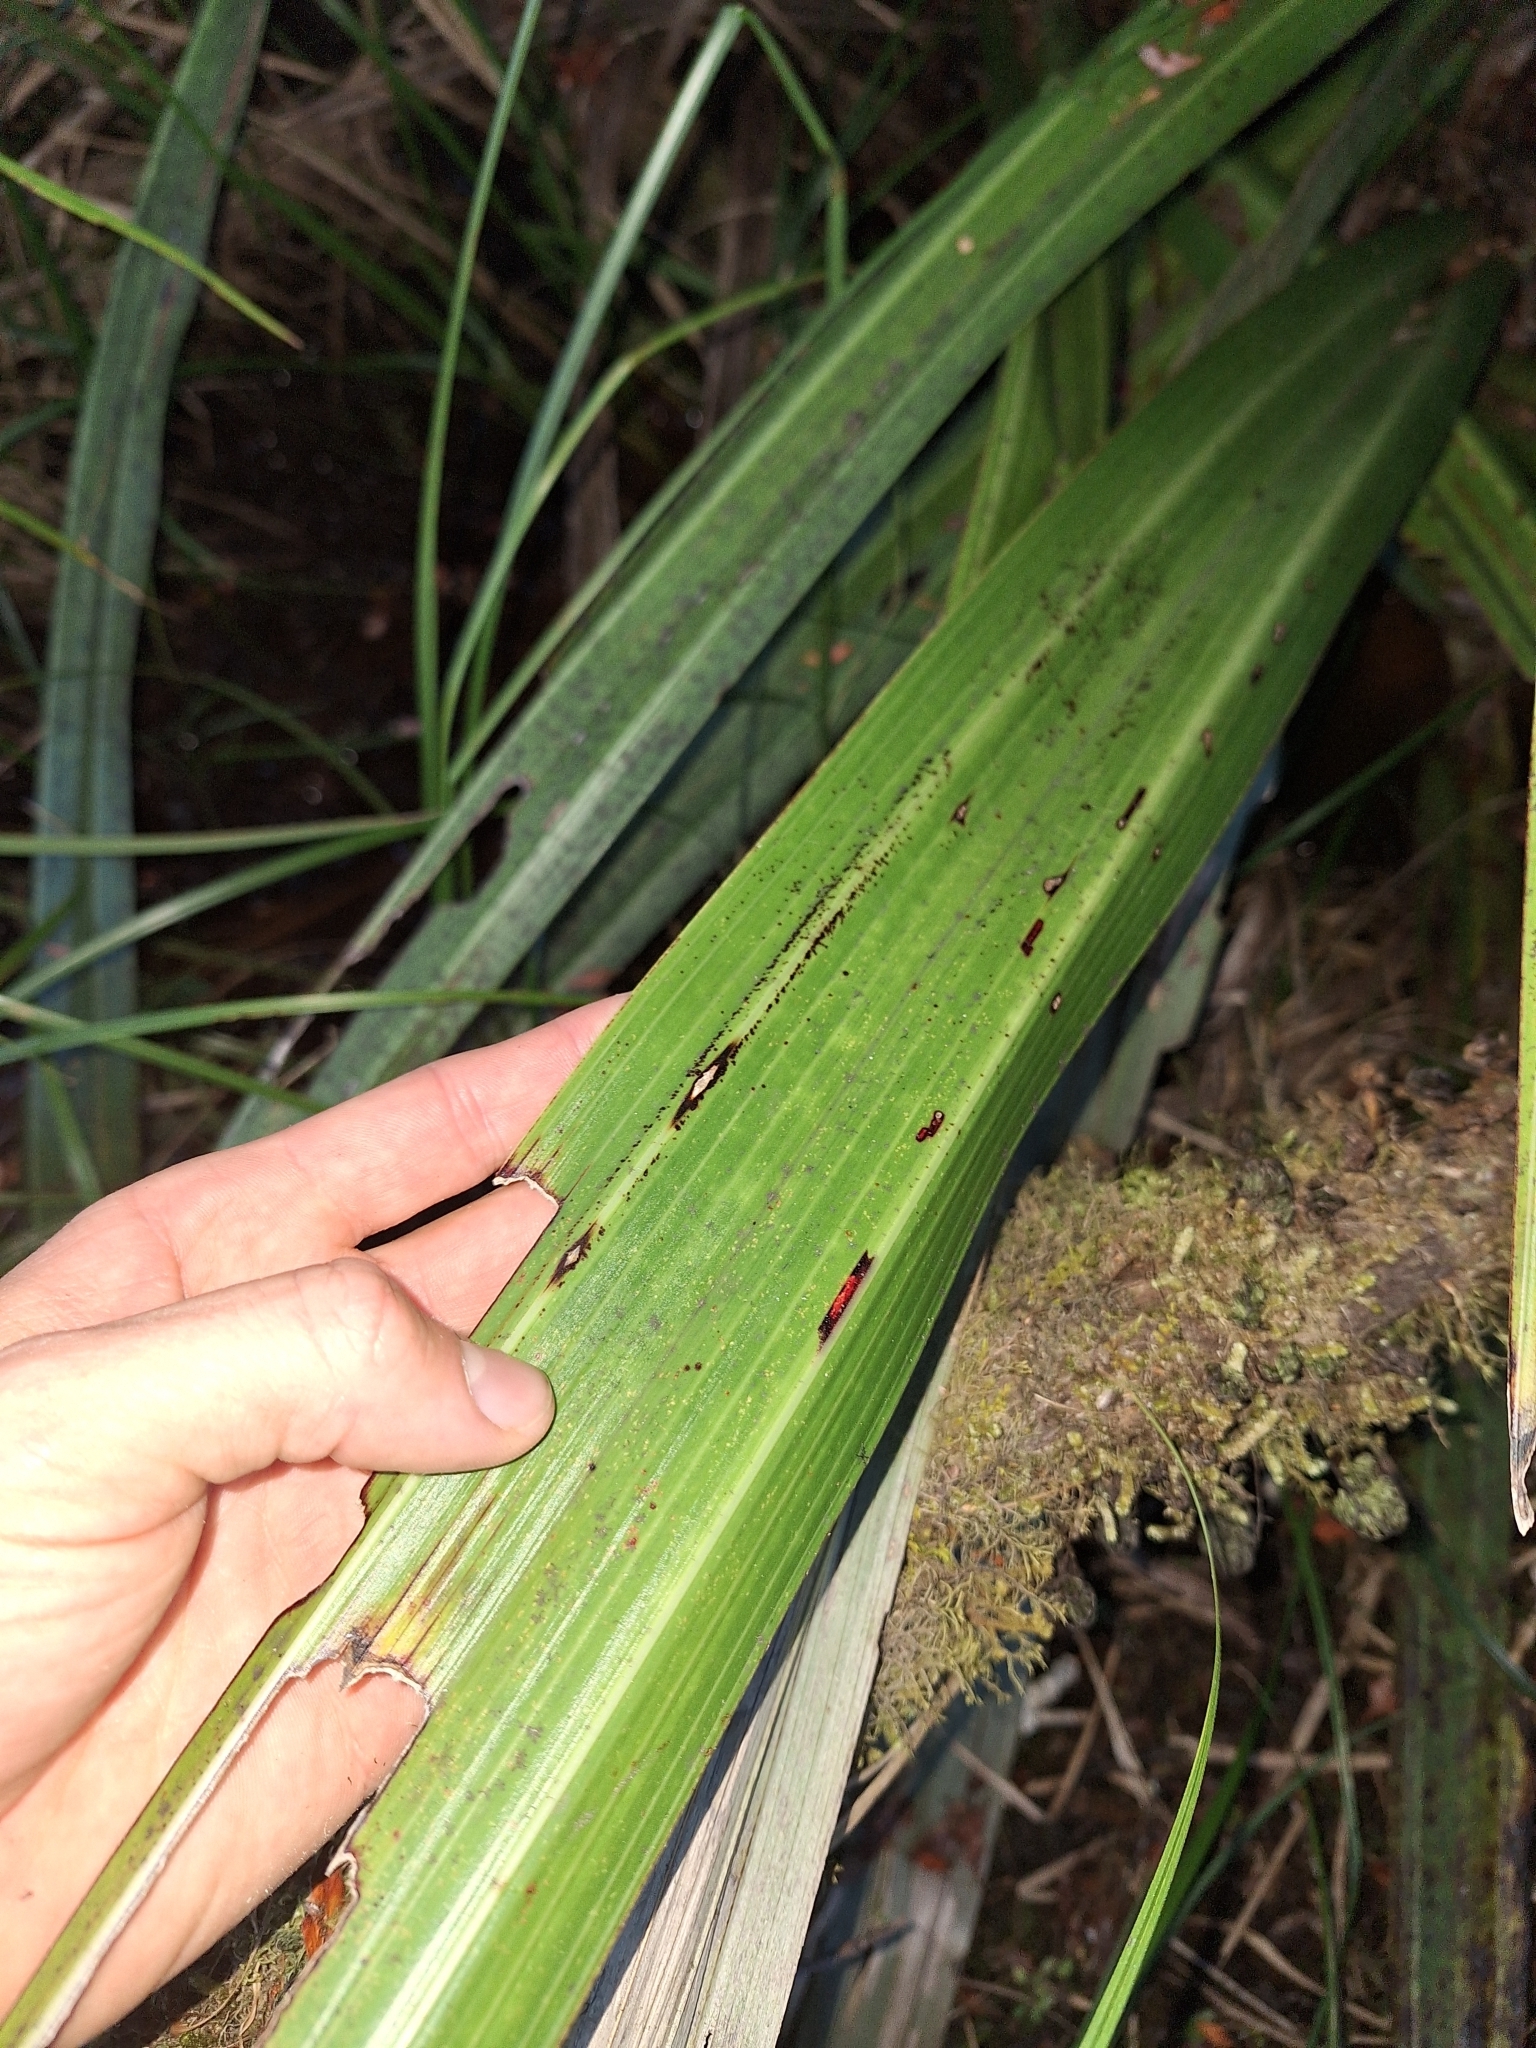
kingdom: Plantae
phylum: Tracheophyta
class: Liliopsida
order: Asparagales
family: Asteliaceae
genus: Astelia
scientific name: Astelia grandis
